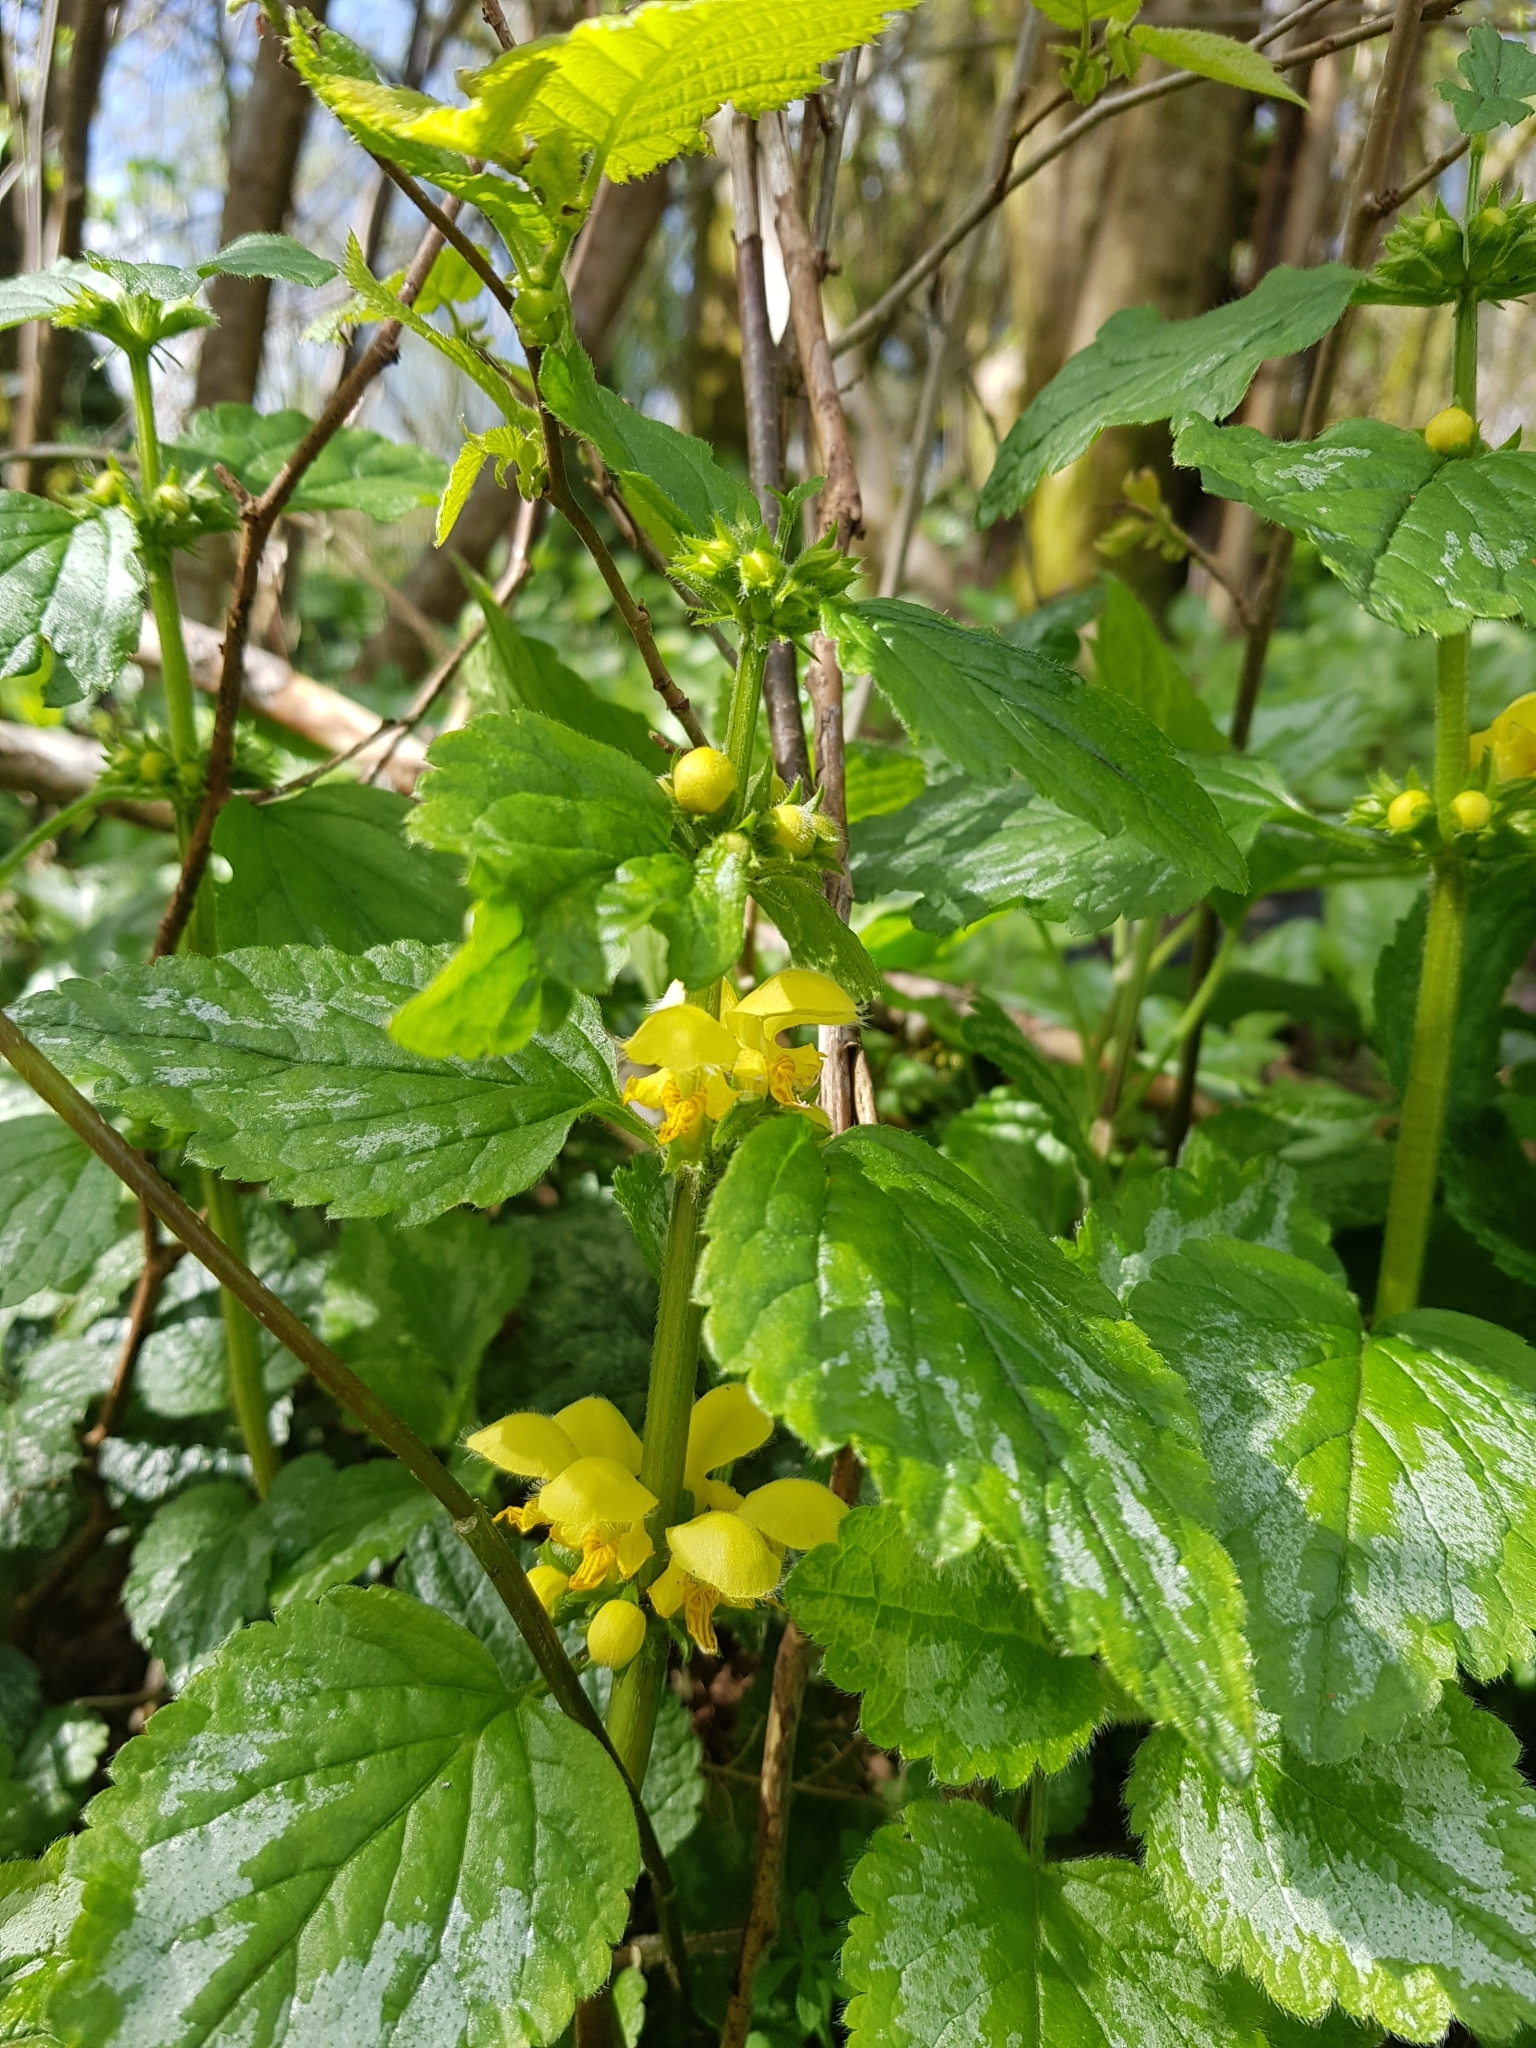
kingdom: Plantae
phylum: Tracheophyta
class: Magnoliopsida
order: Lamiales
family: Lamiaceae
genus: Lamium
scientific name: Lamium galeobdolon
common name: Yellow archangel
